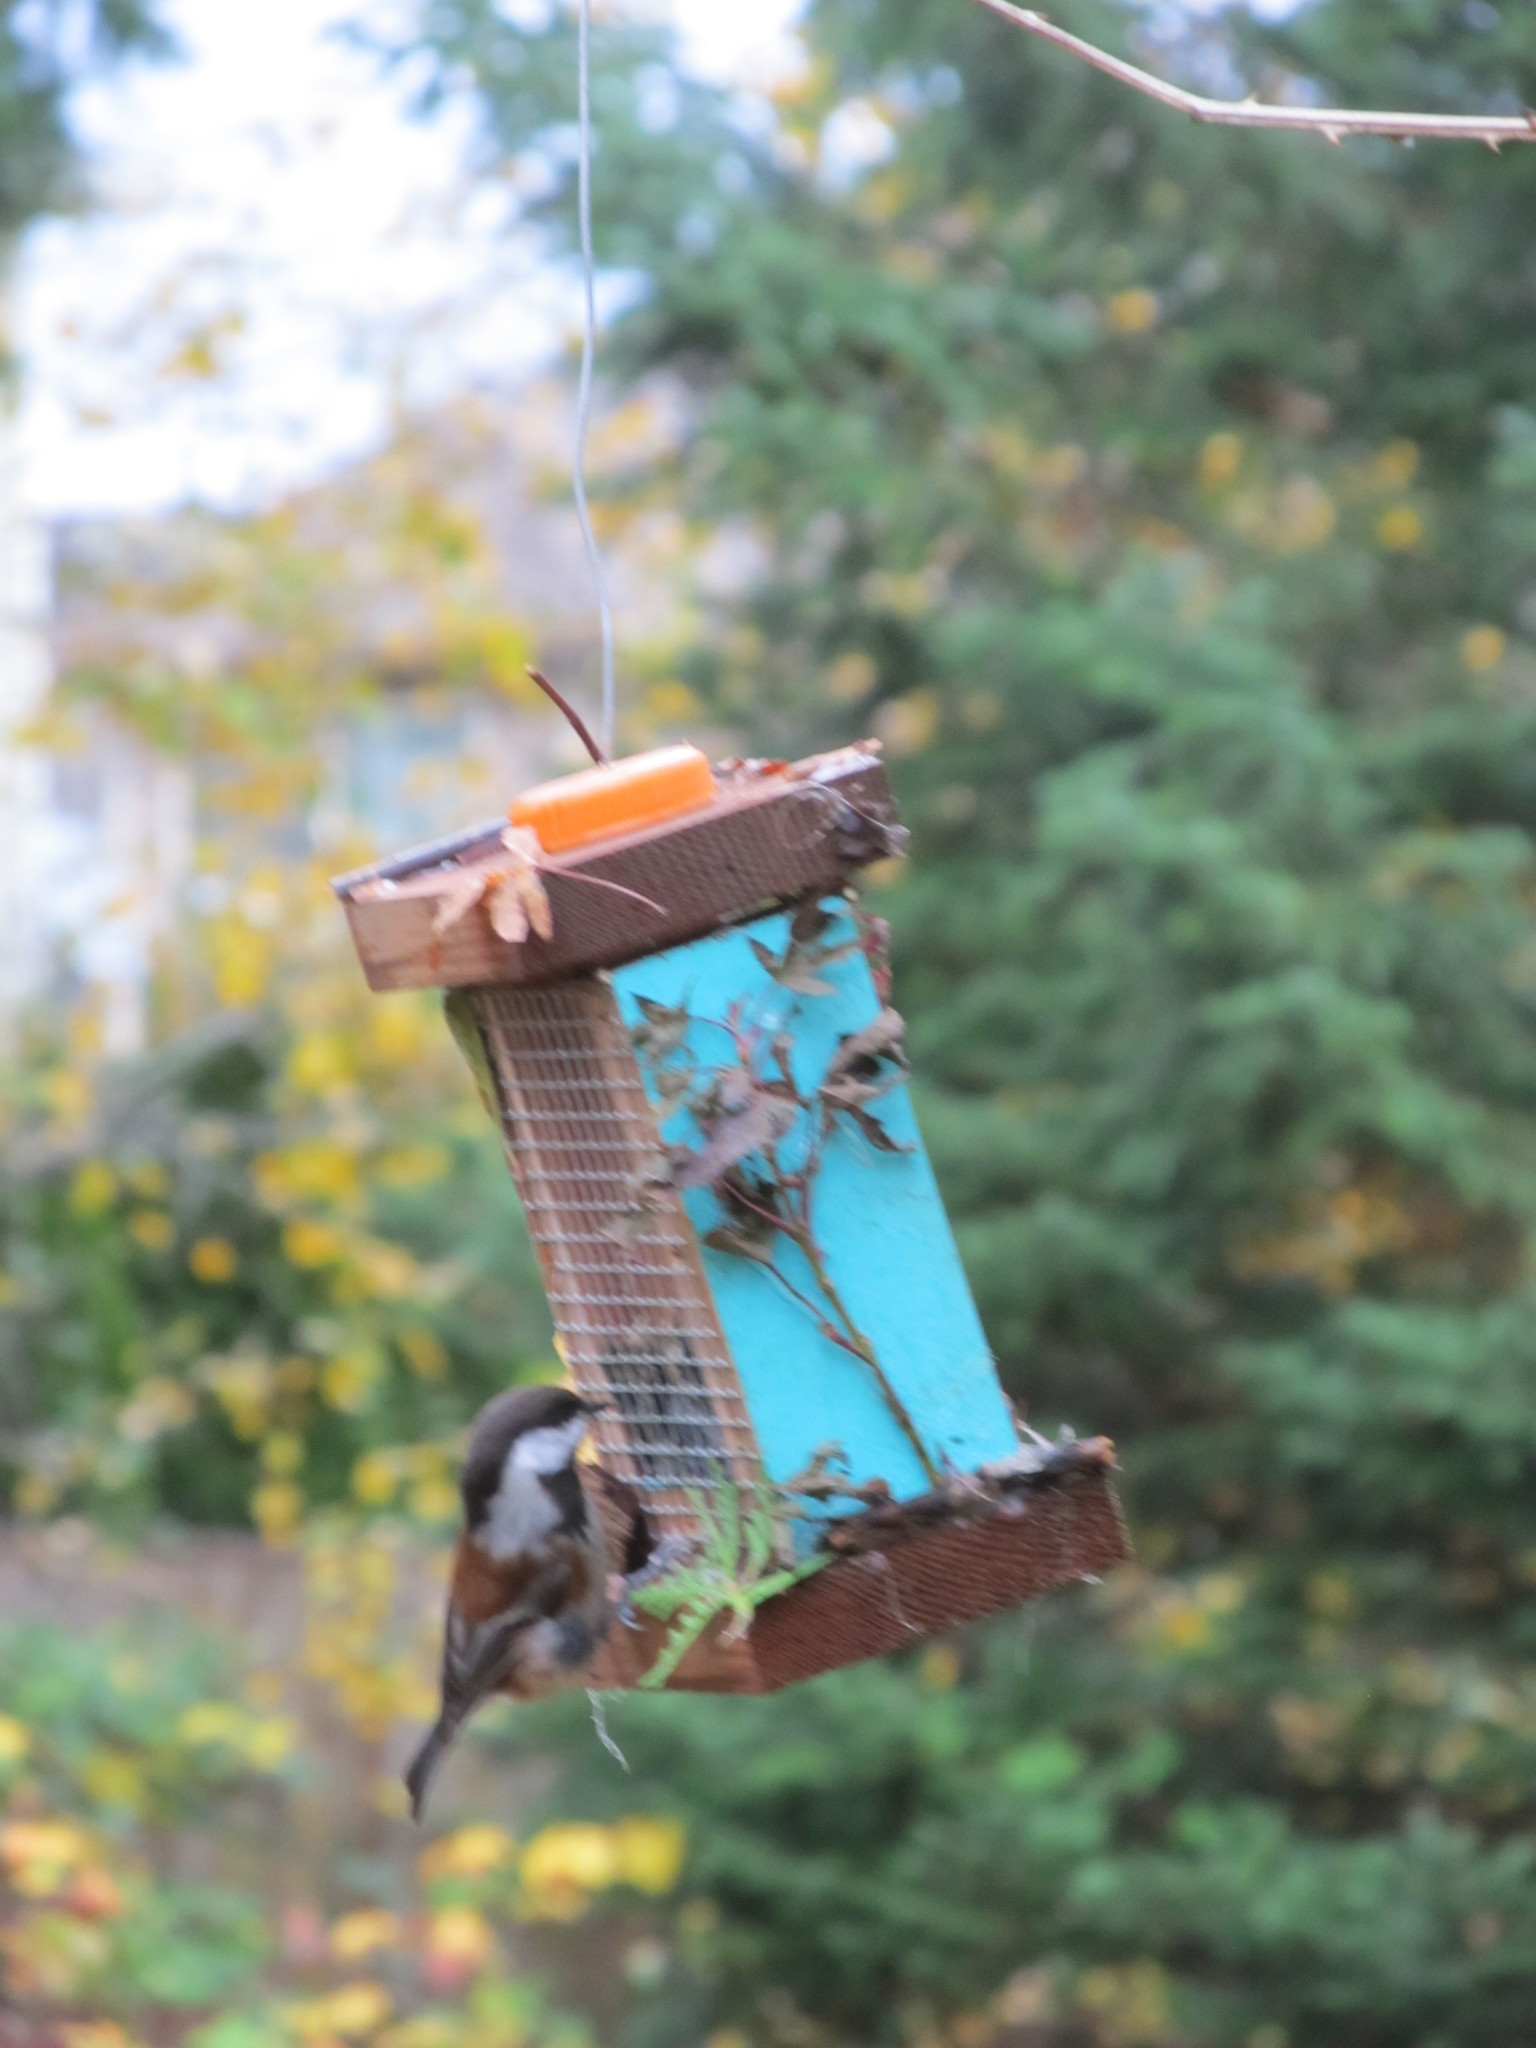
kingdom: Animalia
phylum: Chordata
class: Aves
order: Passeriformes
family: Paridae
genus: Poecile
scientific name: Poecile rufescens
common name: Chestnut-backed chickadee
